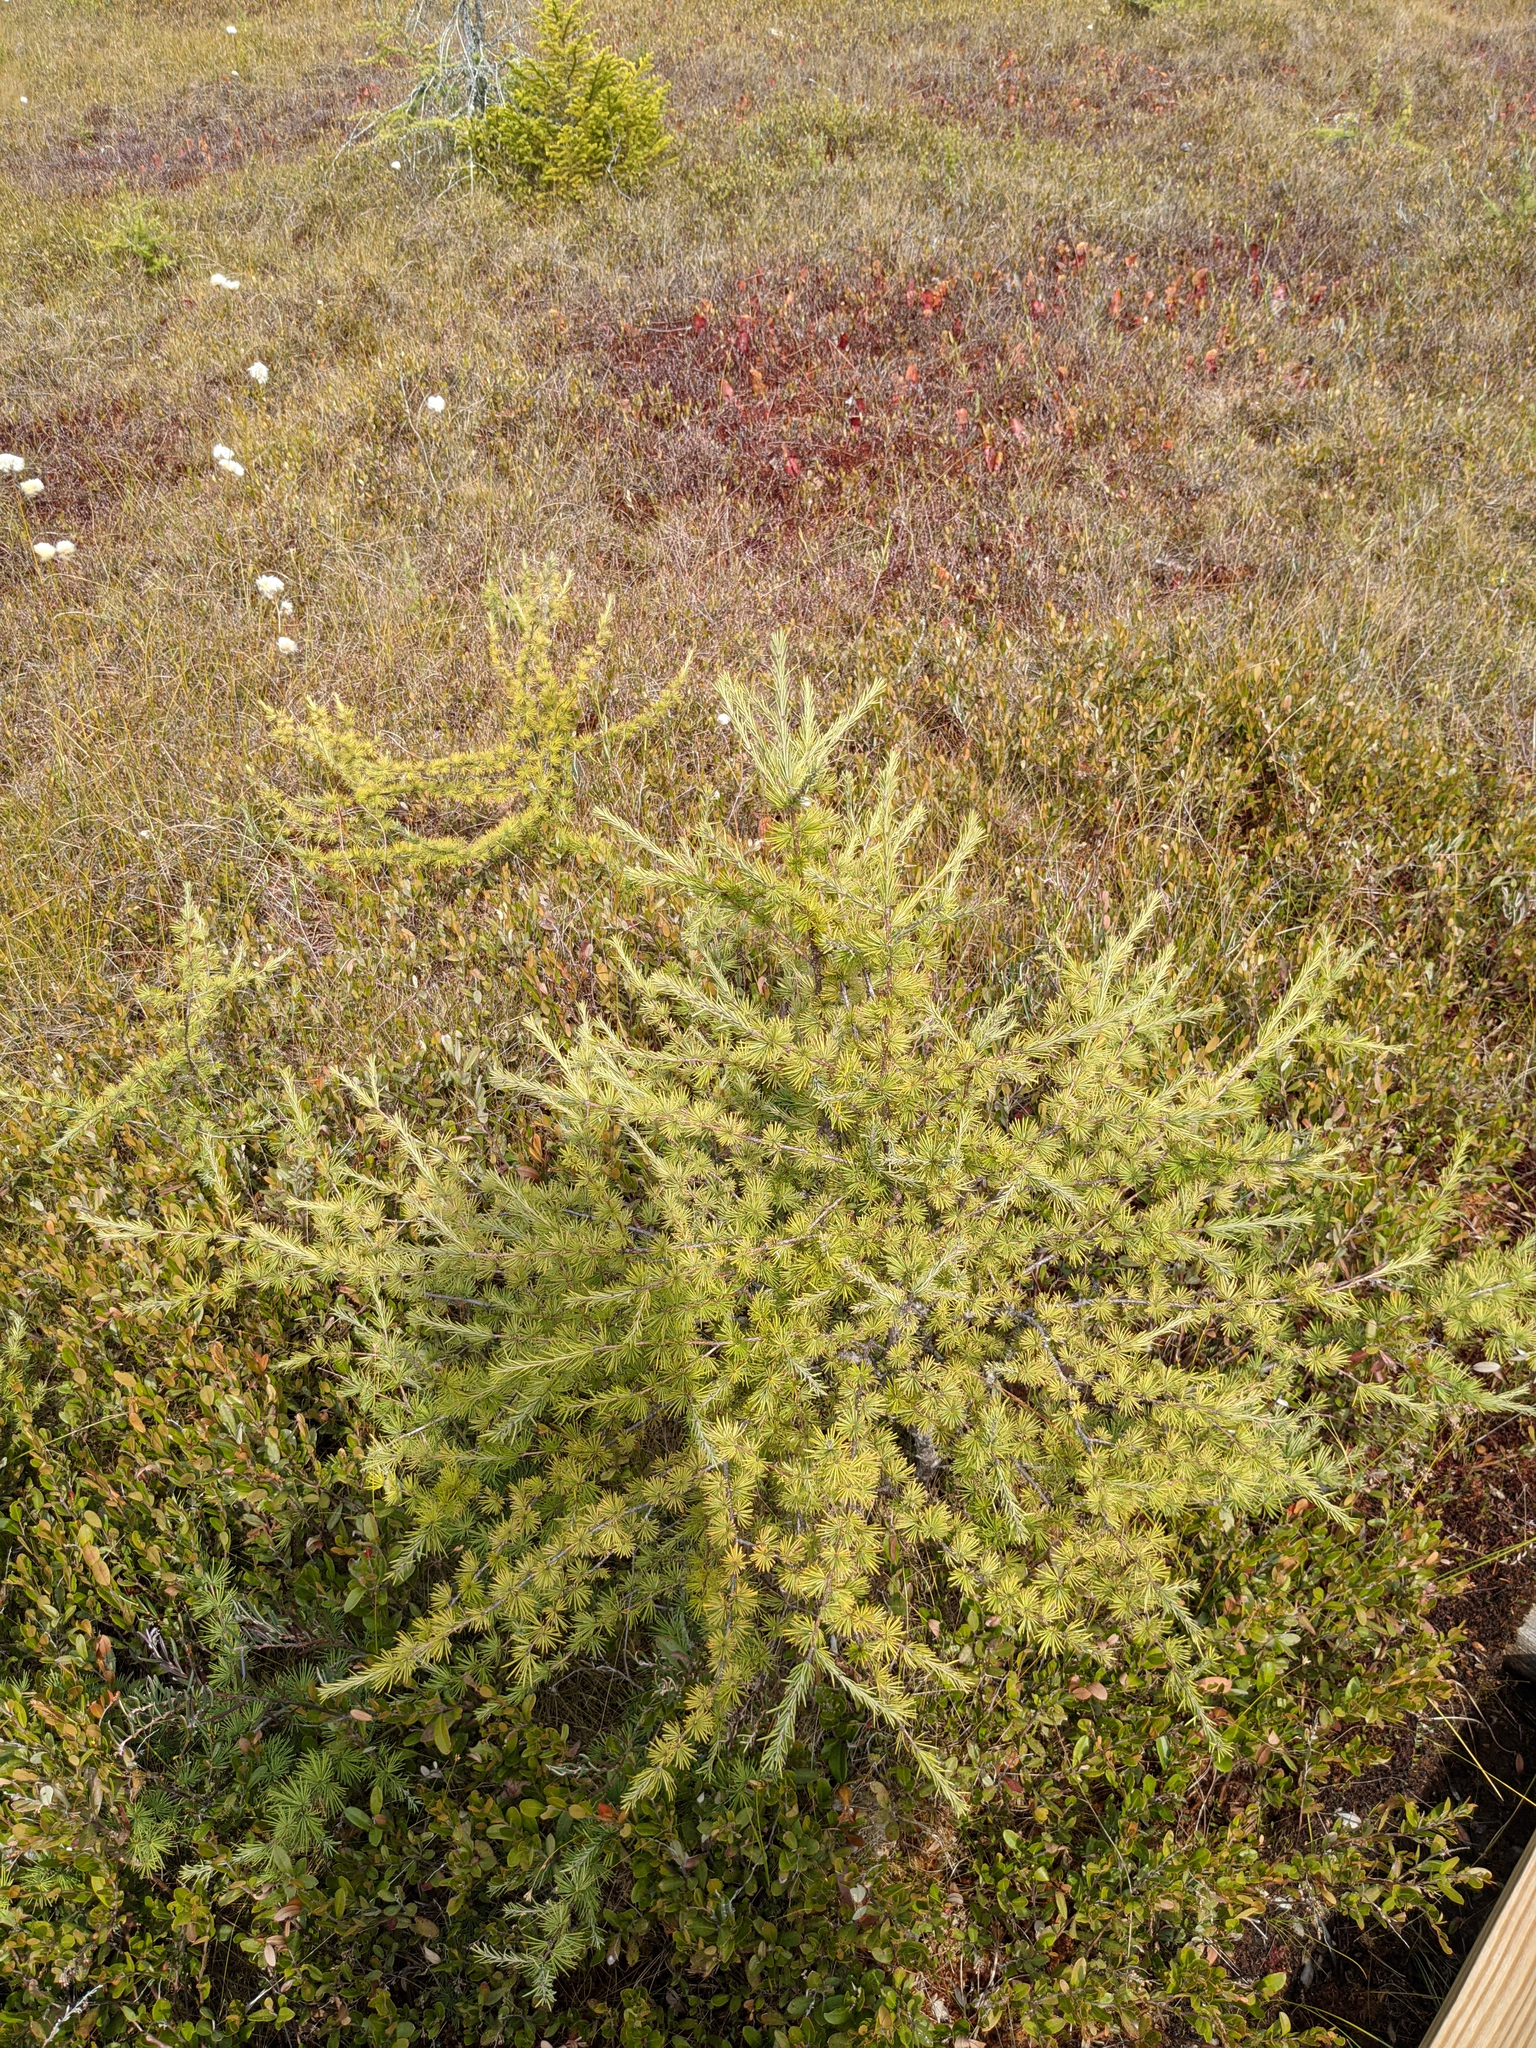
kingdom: Plantae
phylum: Tracheophyta
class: Pinopsida
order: Pinales
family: Pinaceae
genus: Larix
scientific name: Larix laricina
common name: American larch
